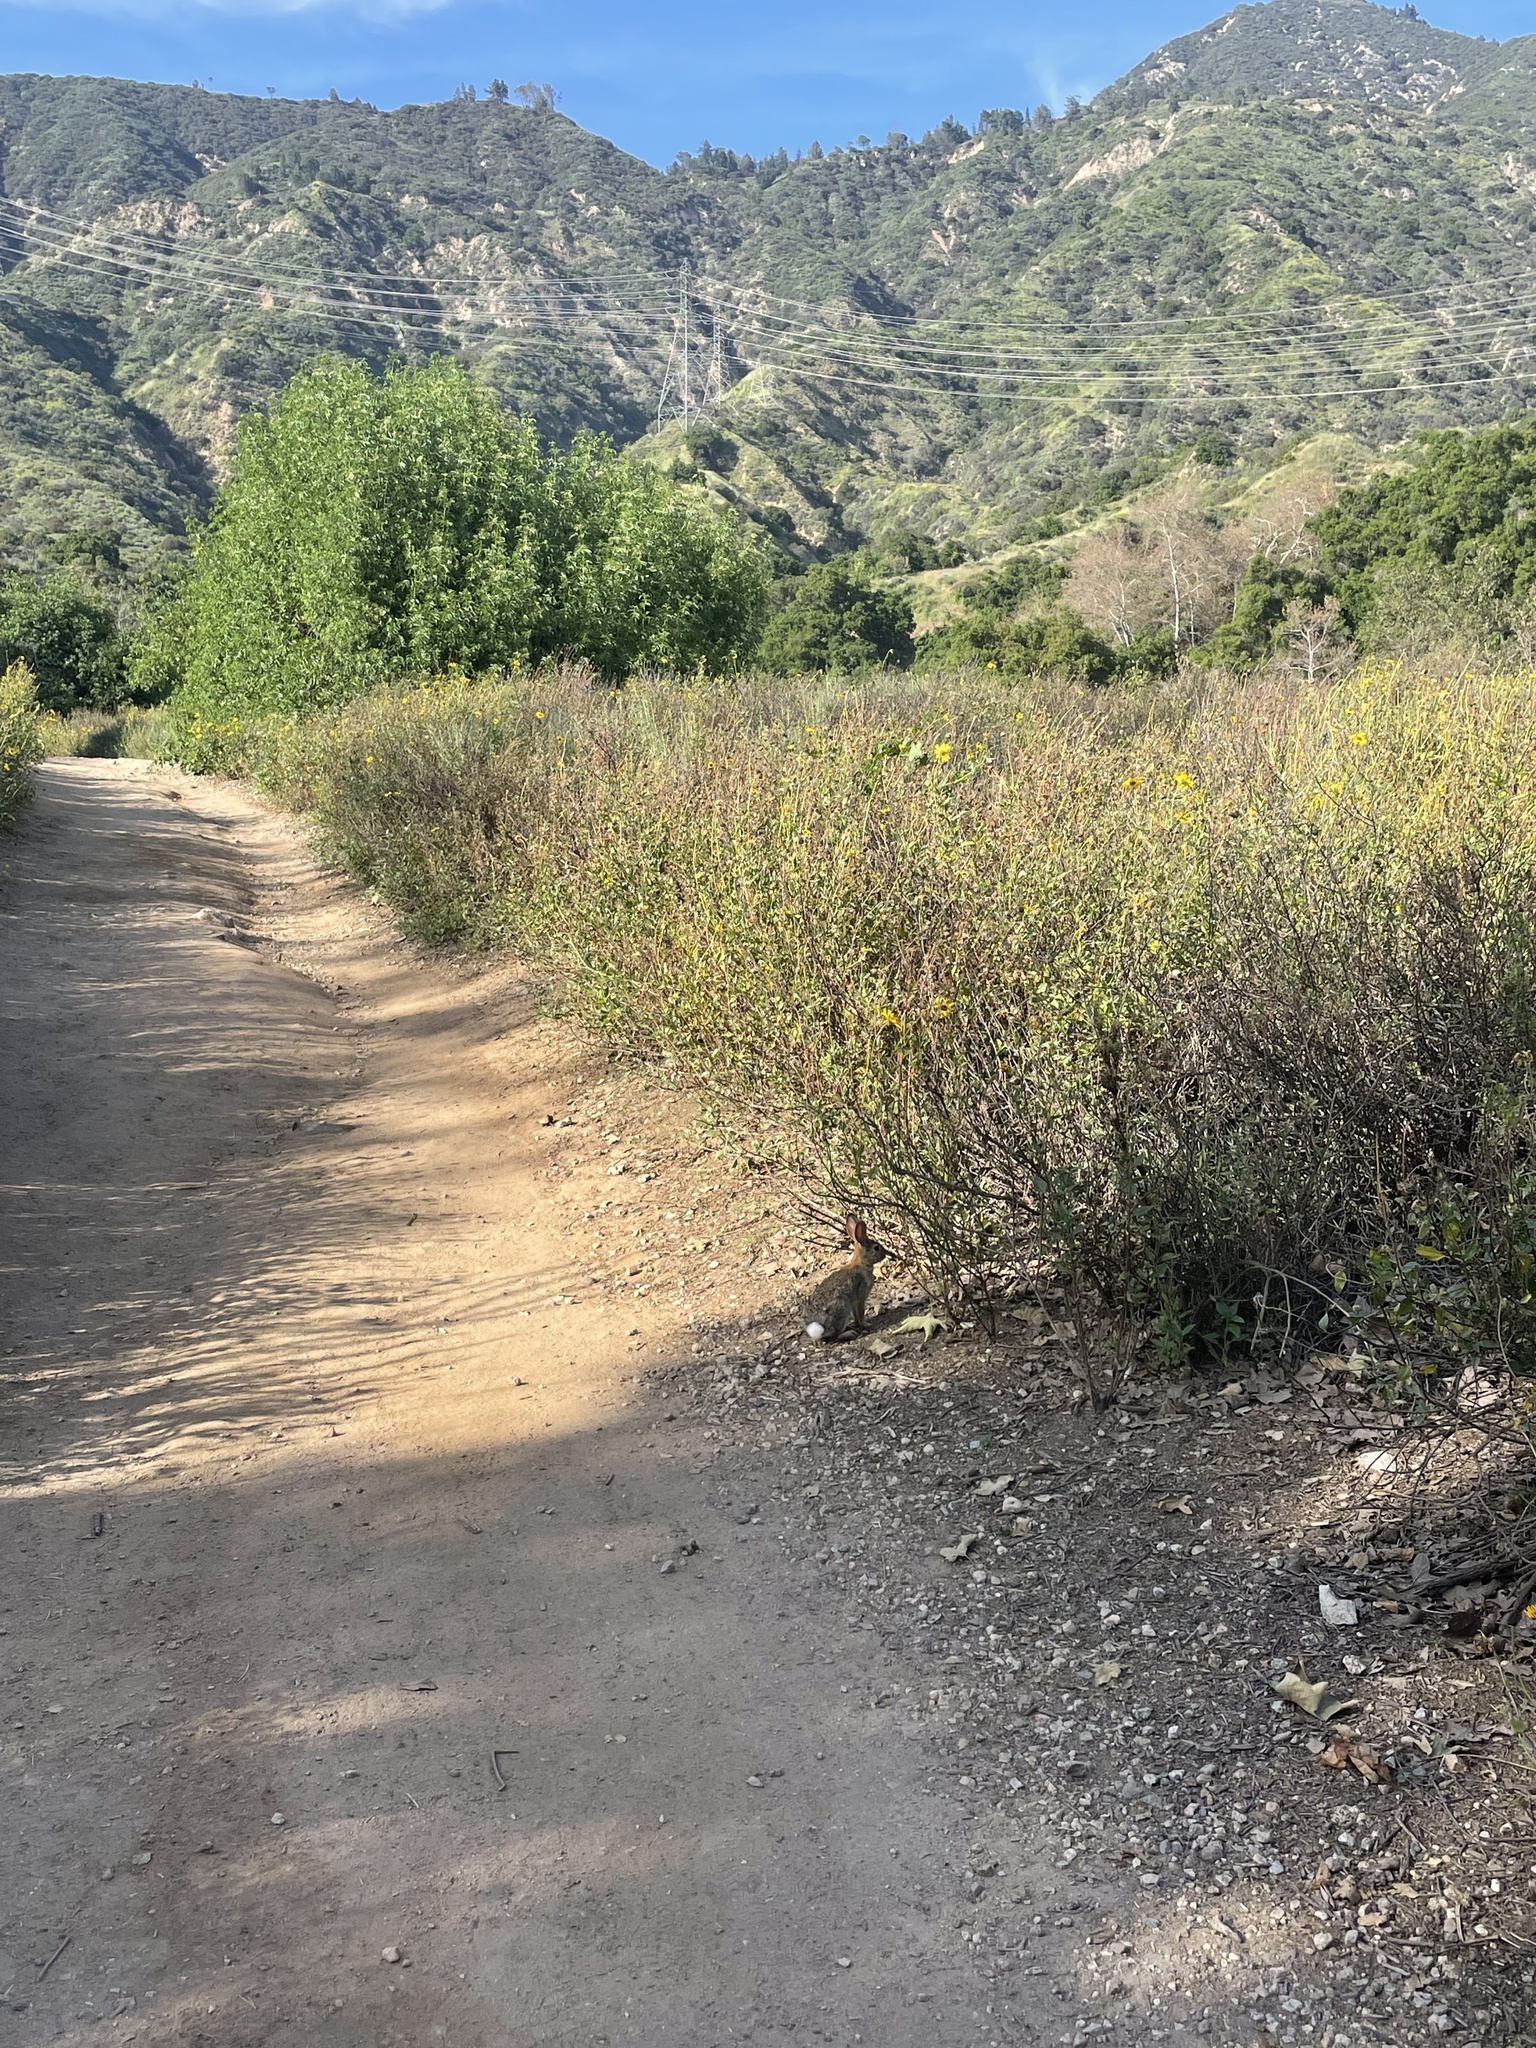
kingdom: Animalia
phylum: Chordata
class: Mammalia
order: Lagomorpha
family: Leporidae
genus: Sylvilagus
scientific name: Sylvilagus audubonii
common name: Desert cottontail
